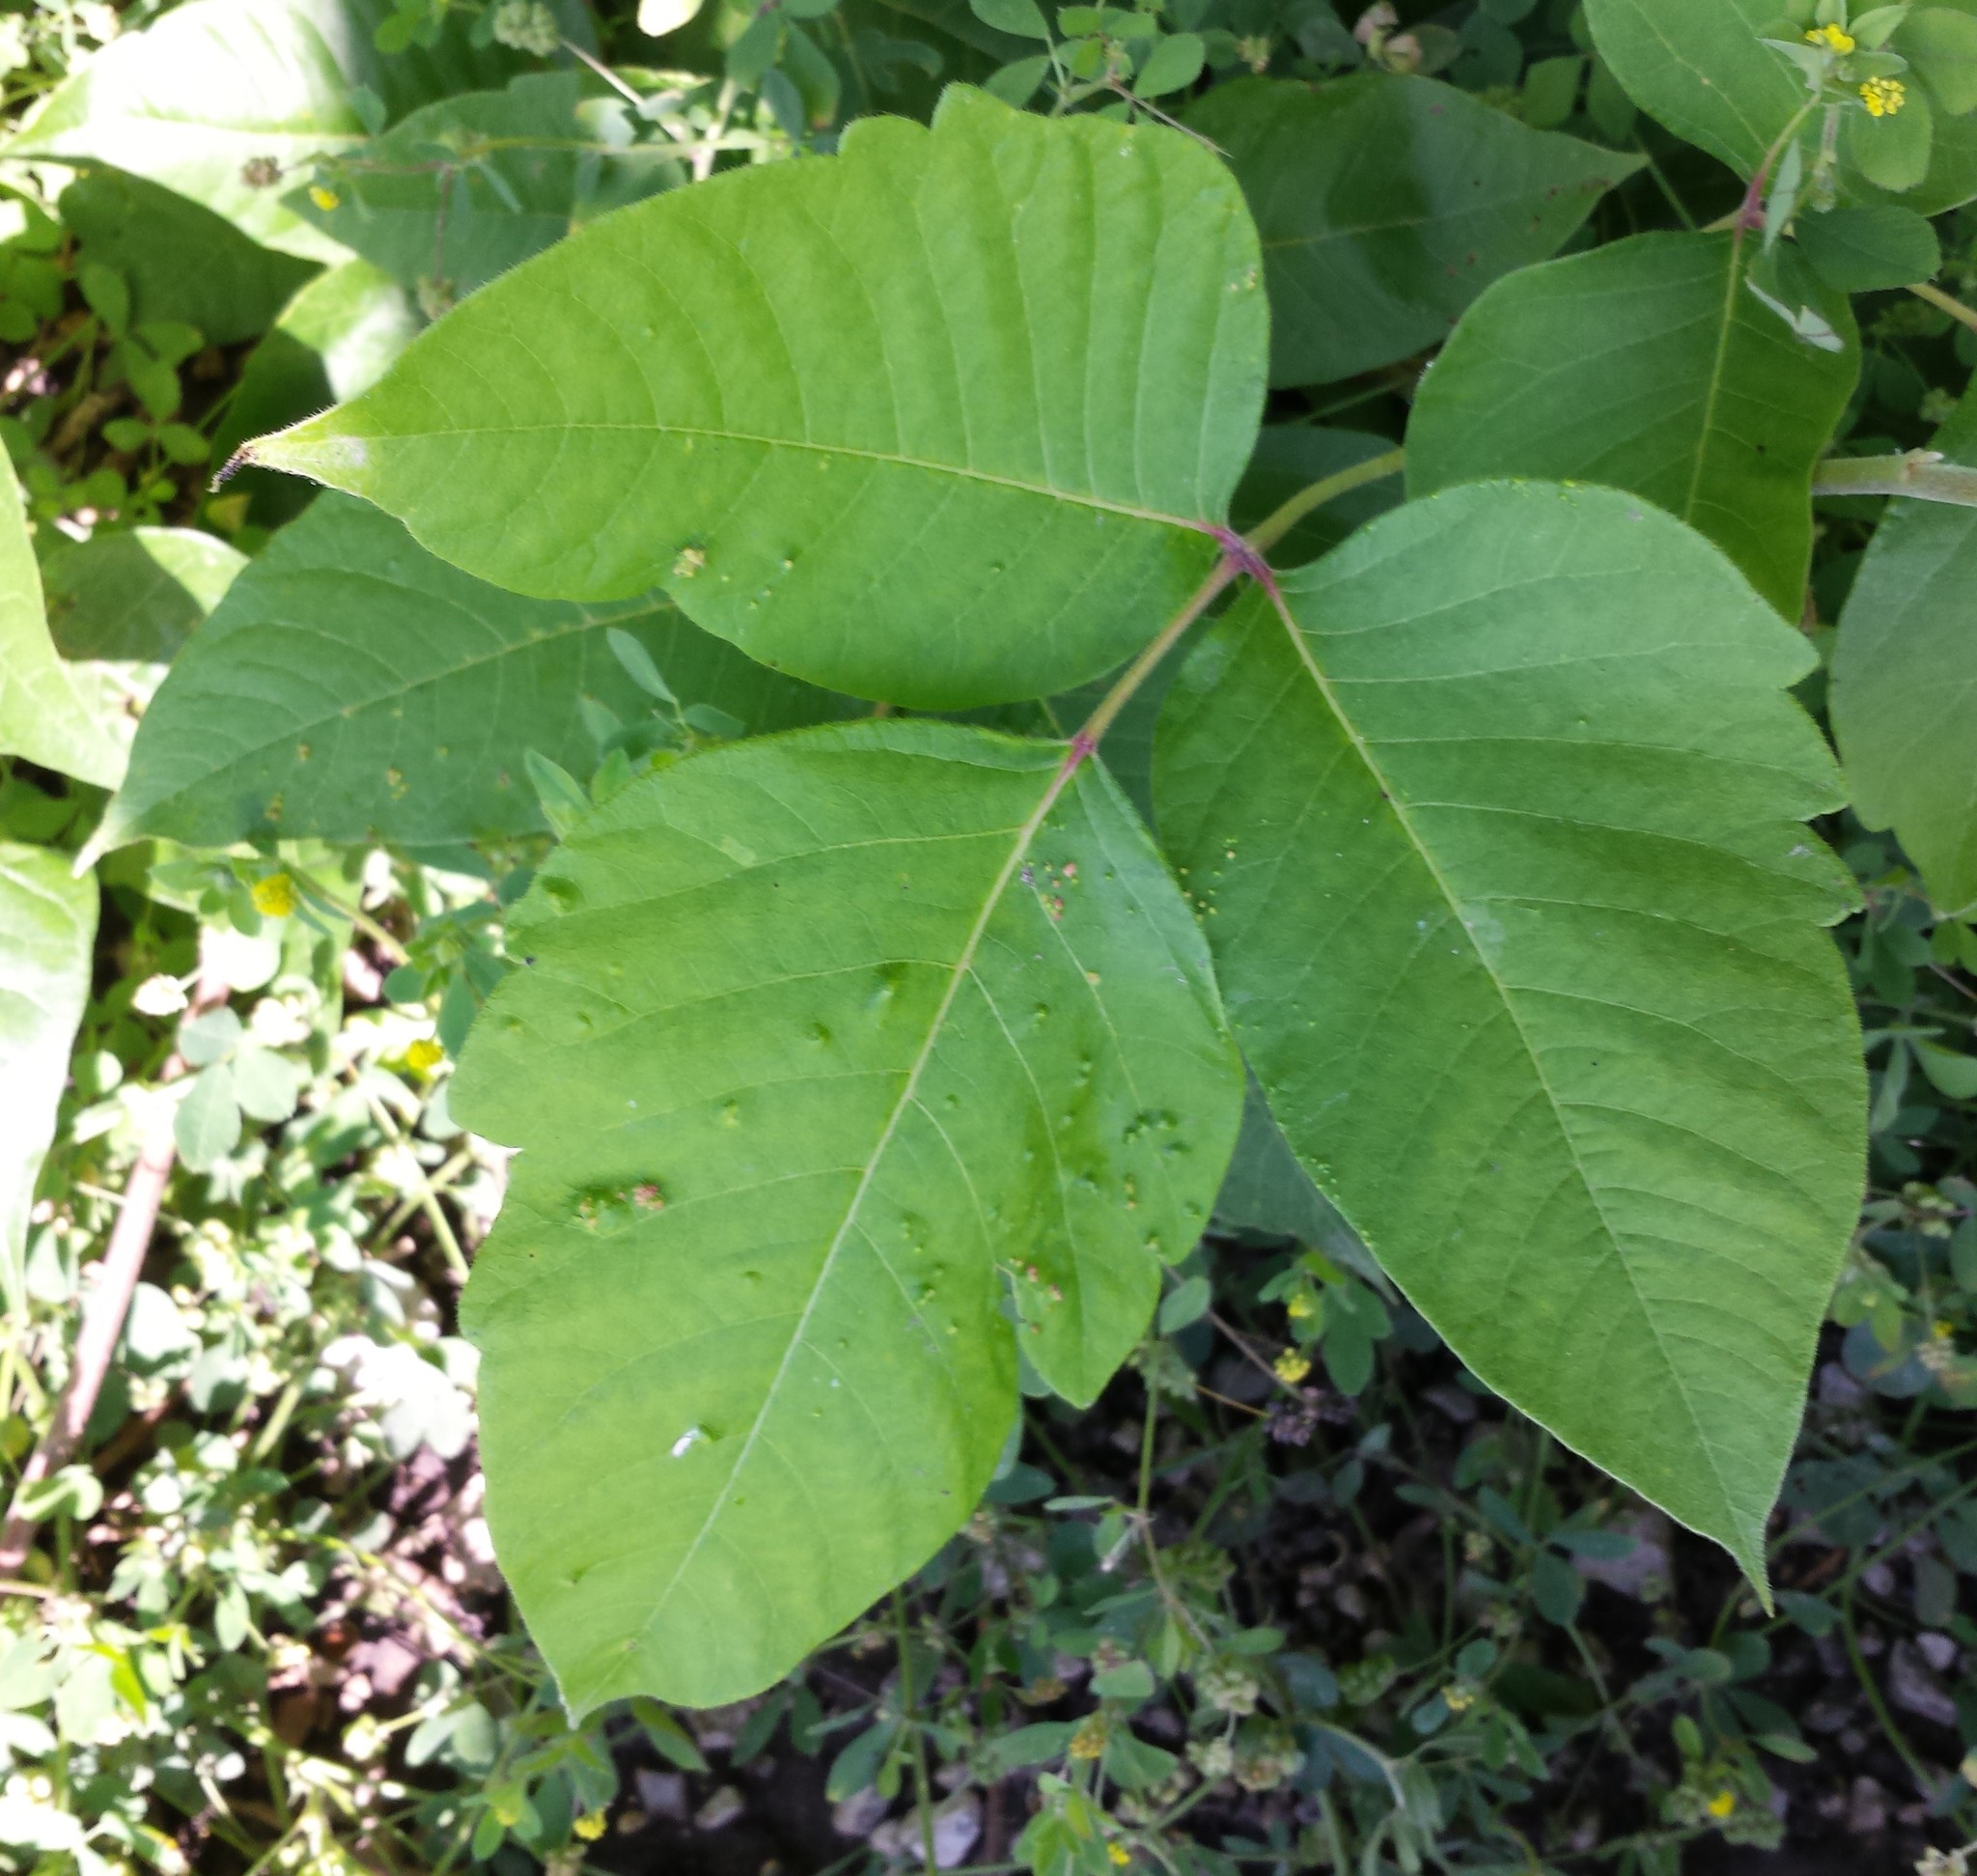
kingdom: Animalia
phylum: Arthropoda
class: Arachnida
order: Trombidiformes
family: Eriophyidae
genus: Aculops
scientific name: Aculops
